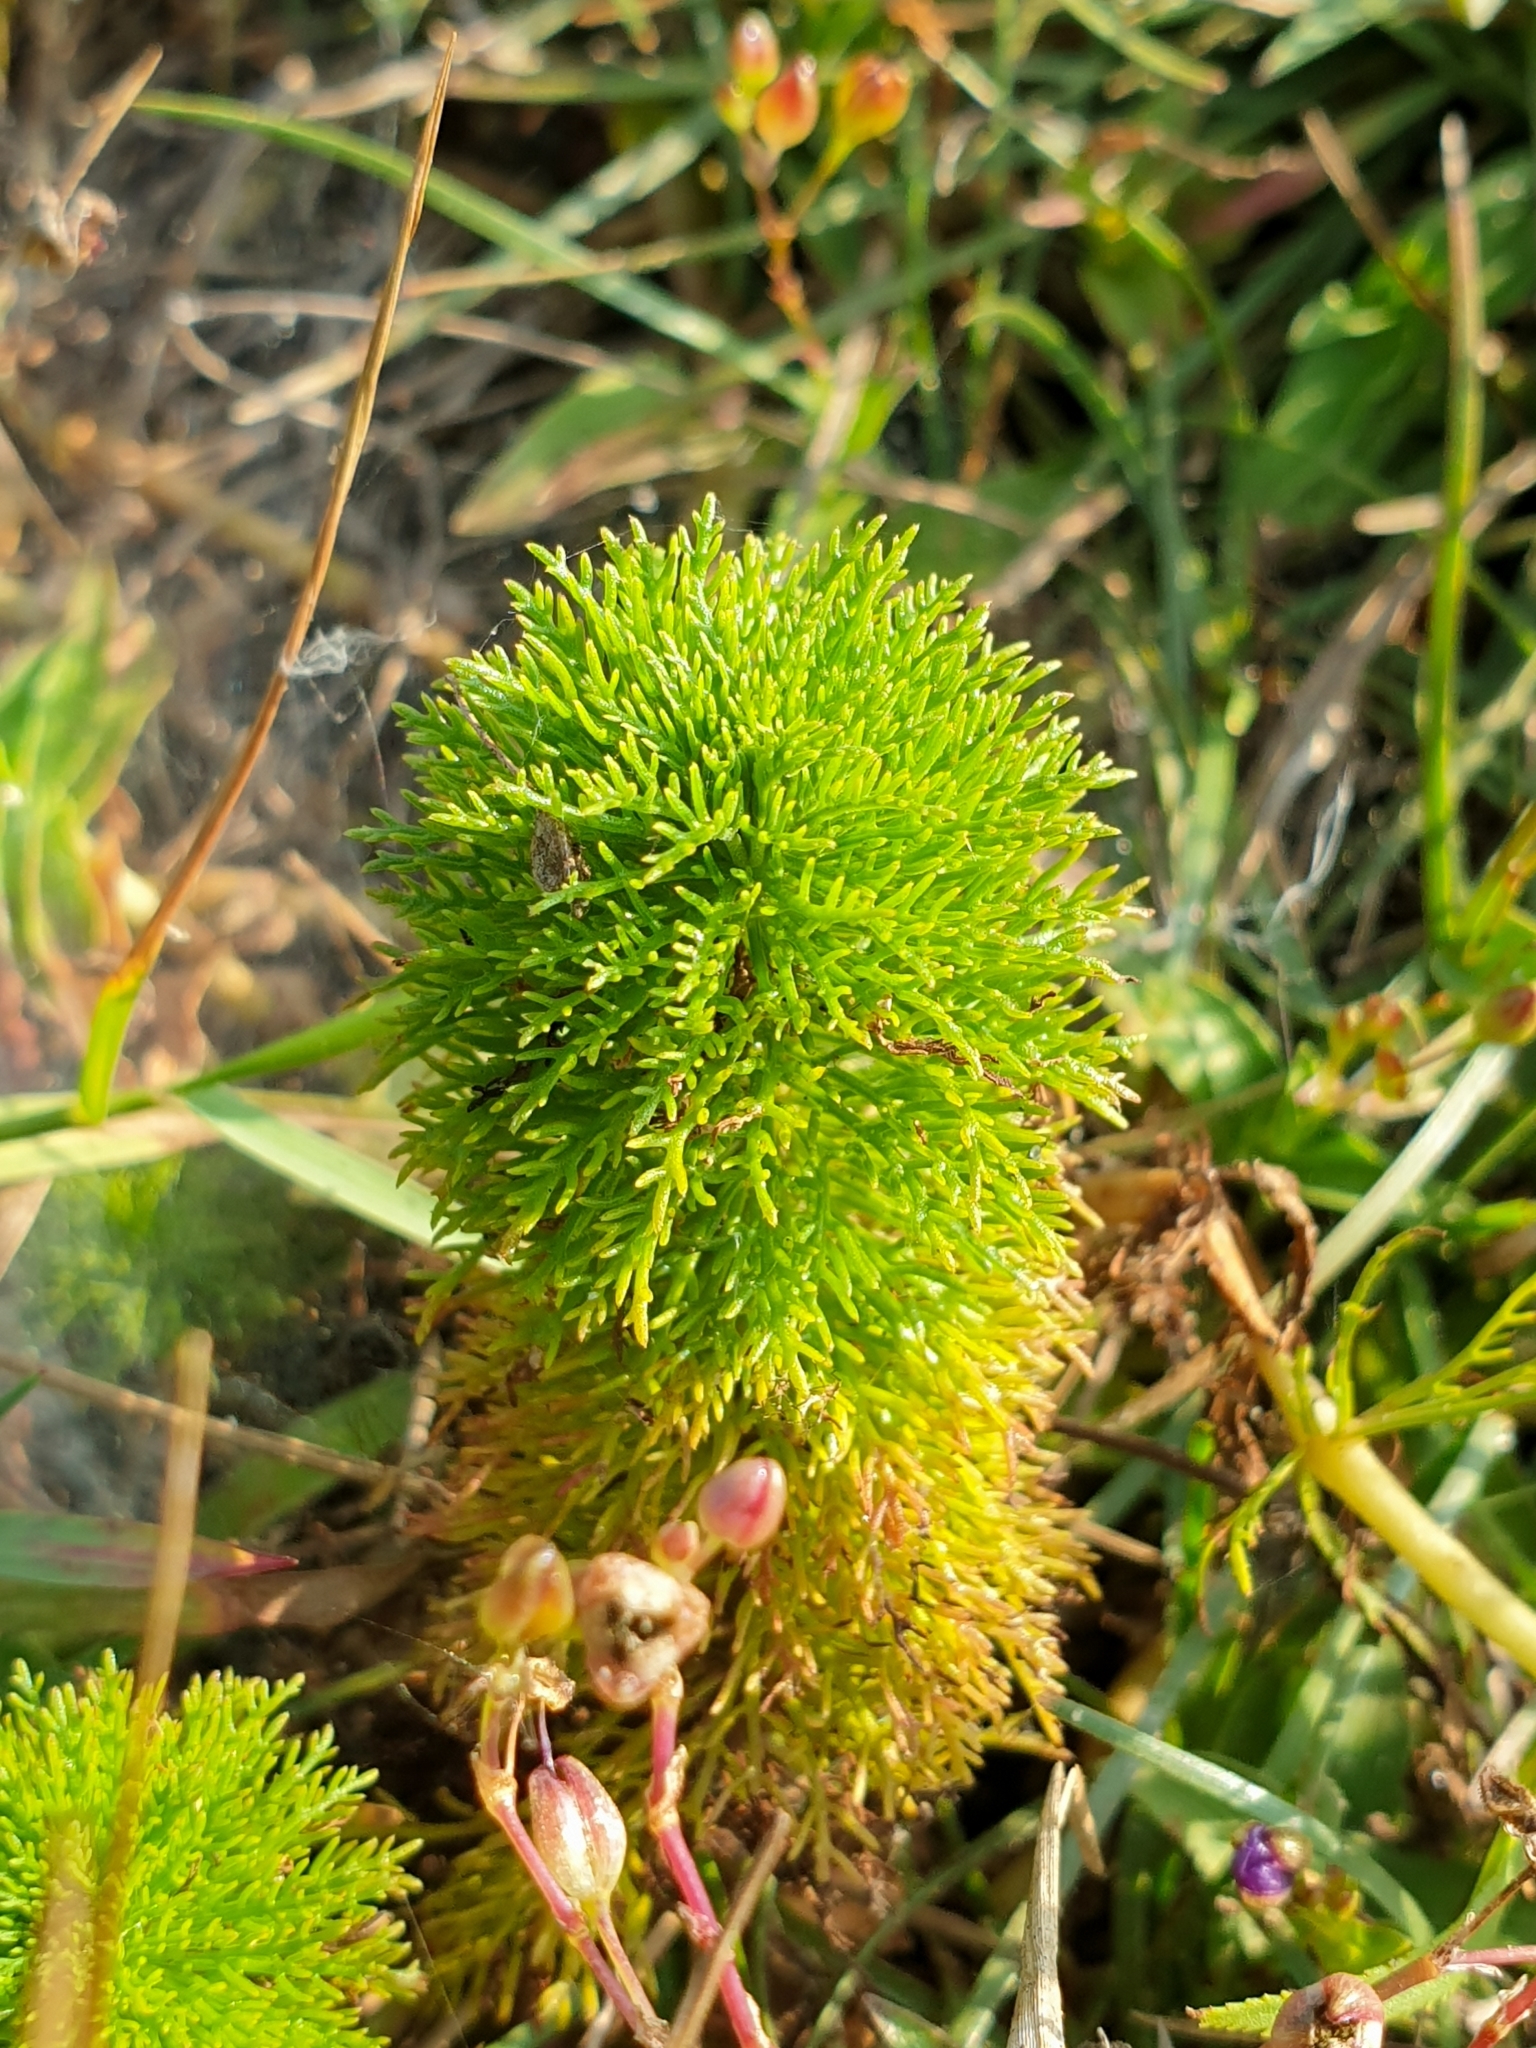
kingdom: Plantae
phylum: Tracheophyta
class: Magnoliopsida
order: Lamiales
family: Plantaginaceae
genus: Limnophila
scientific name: Limnophila aquatica
